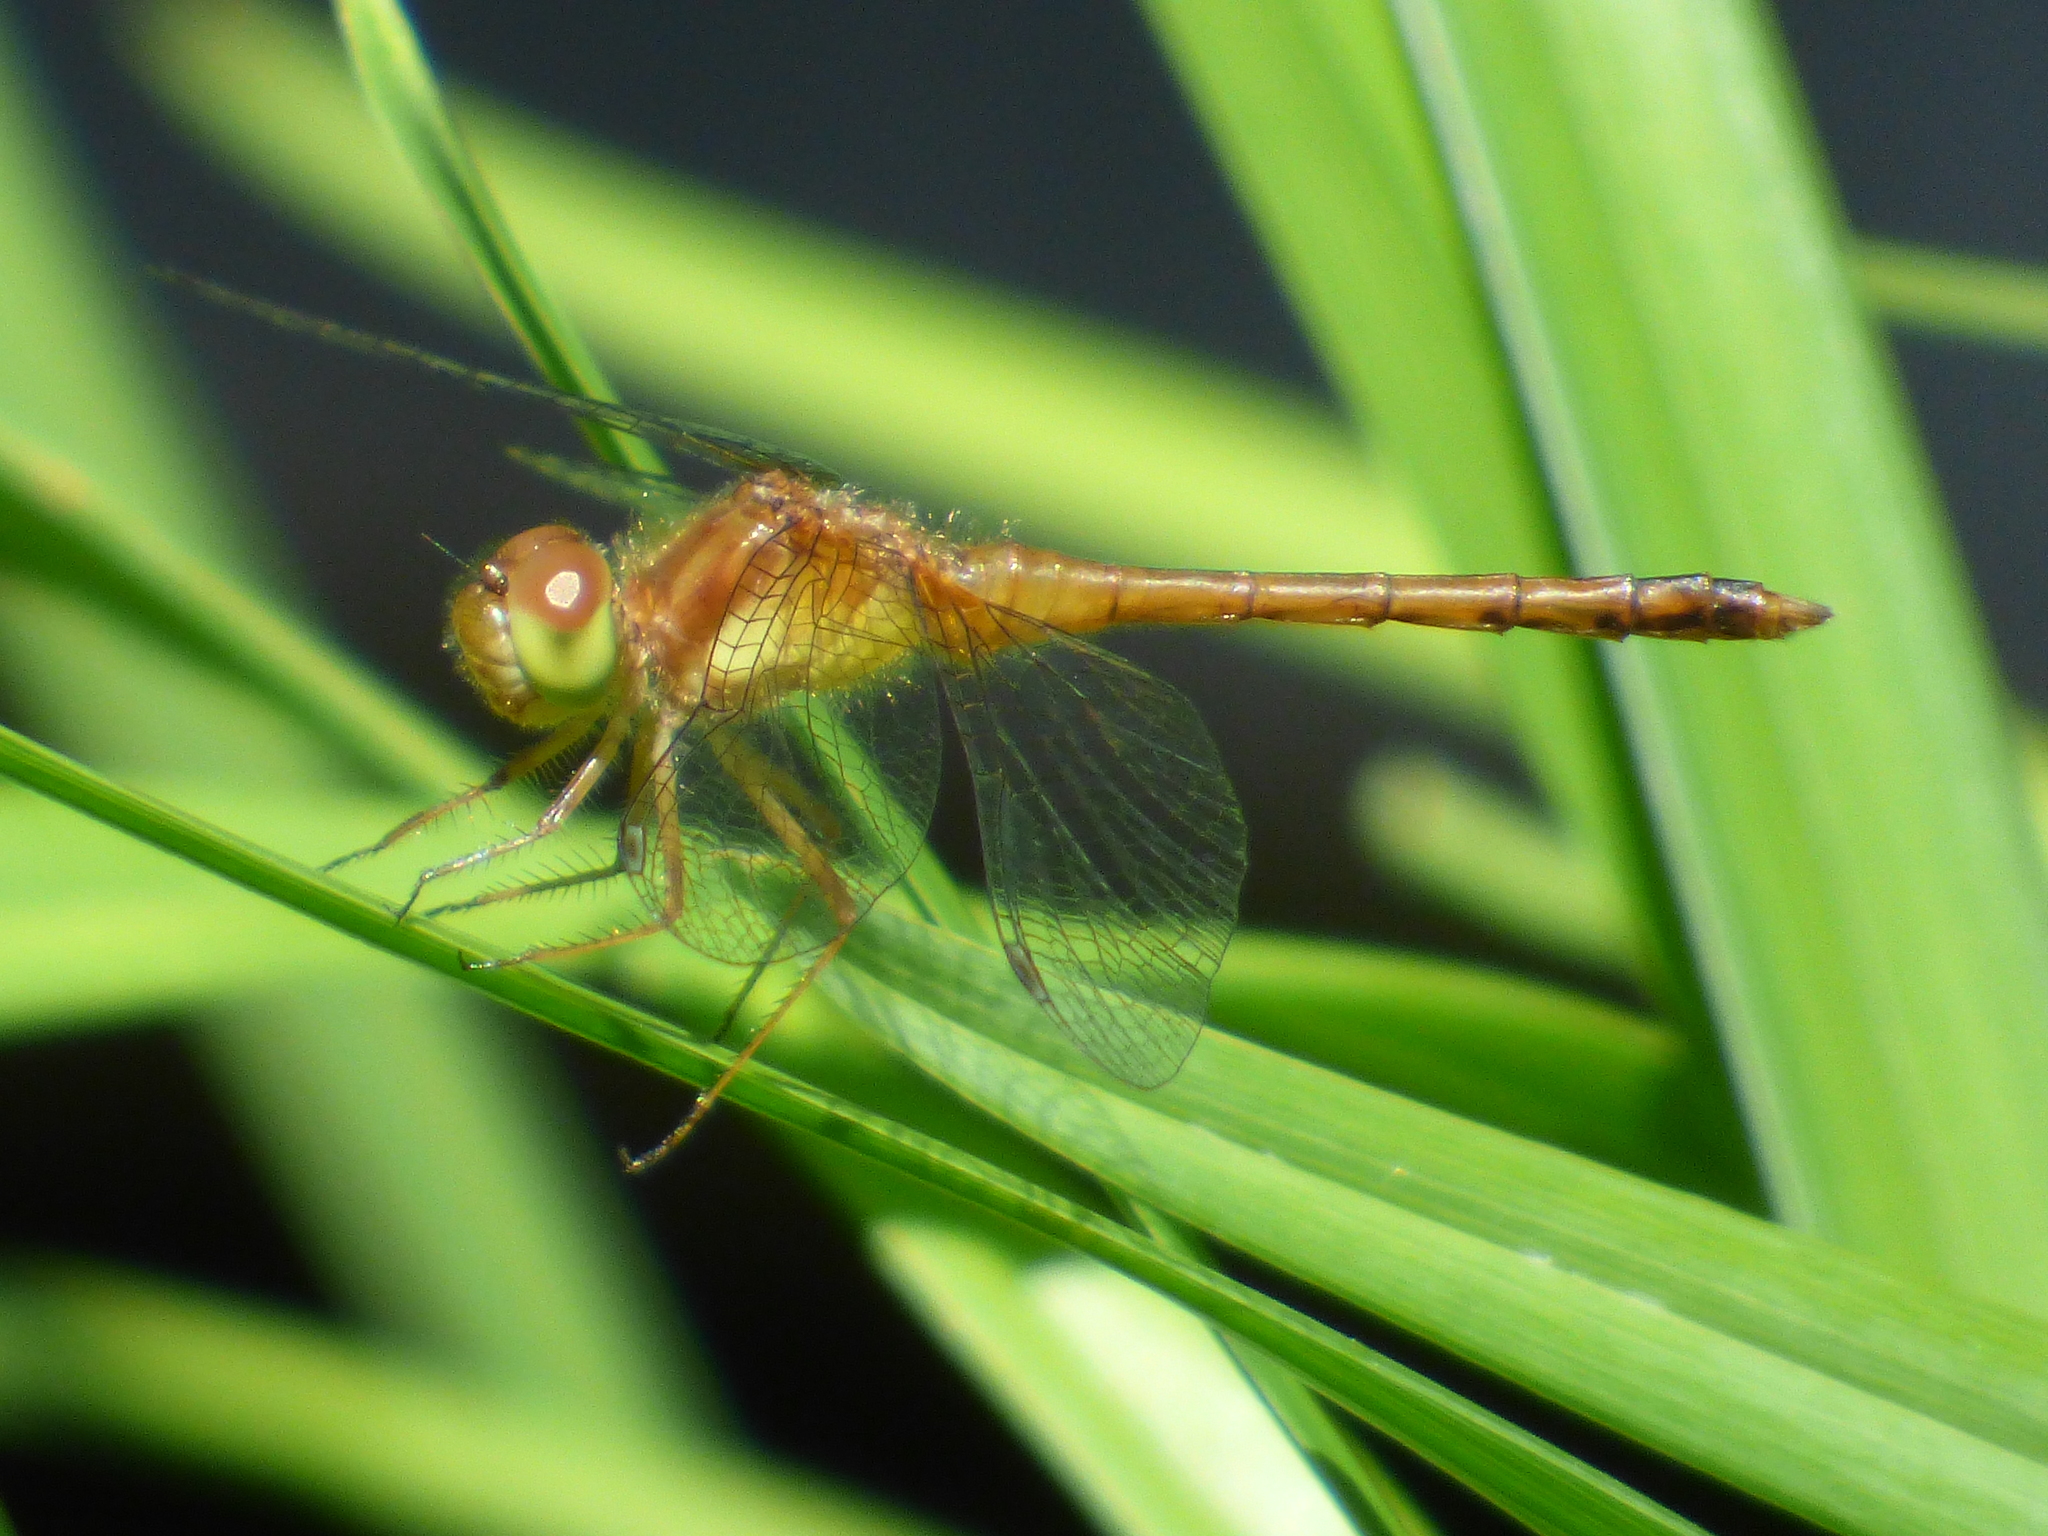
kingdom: Animalia
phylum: Arthropoda
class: Insecta
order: Odonata
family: Libellulidae
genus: Sympetrum
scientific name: Sympetrum vicinum
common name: Autumn meadowhawk
